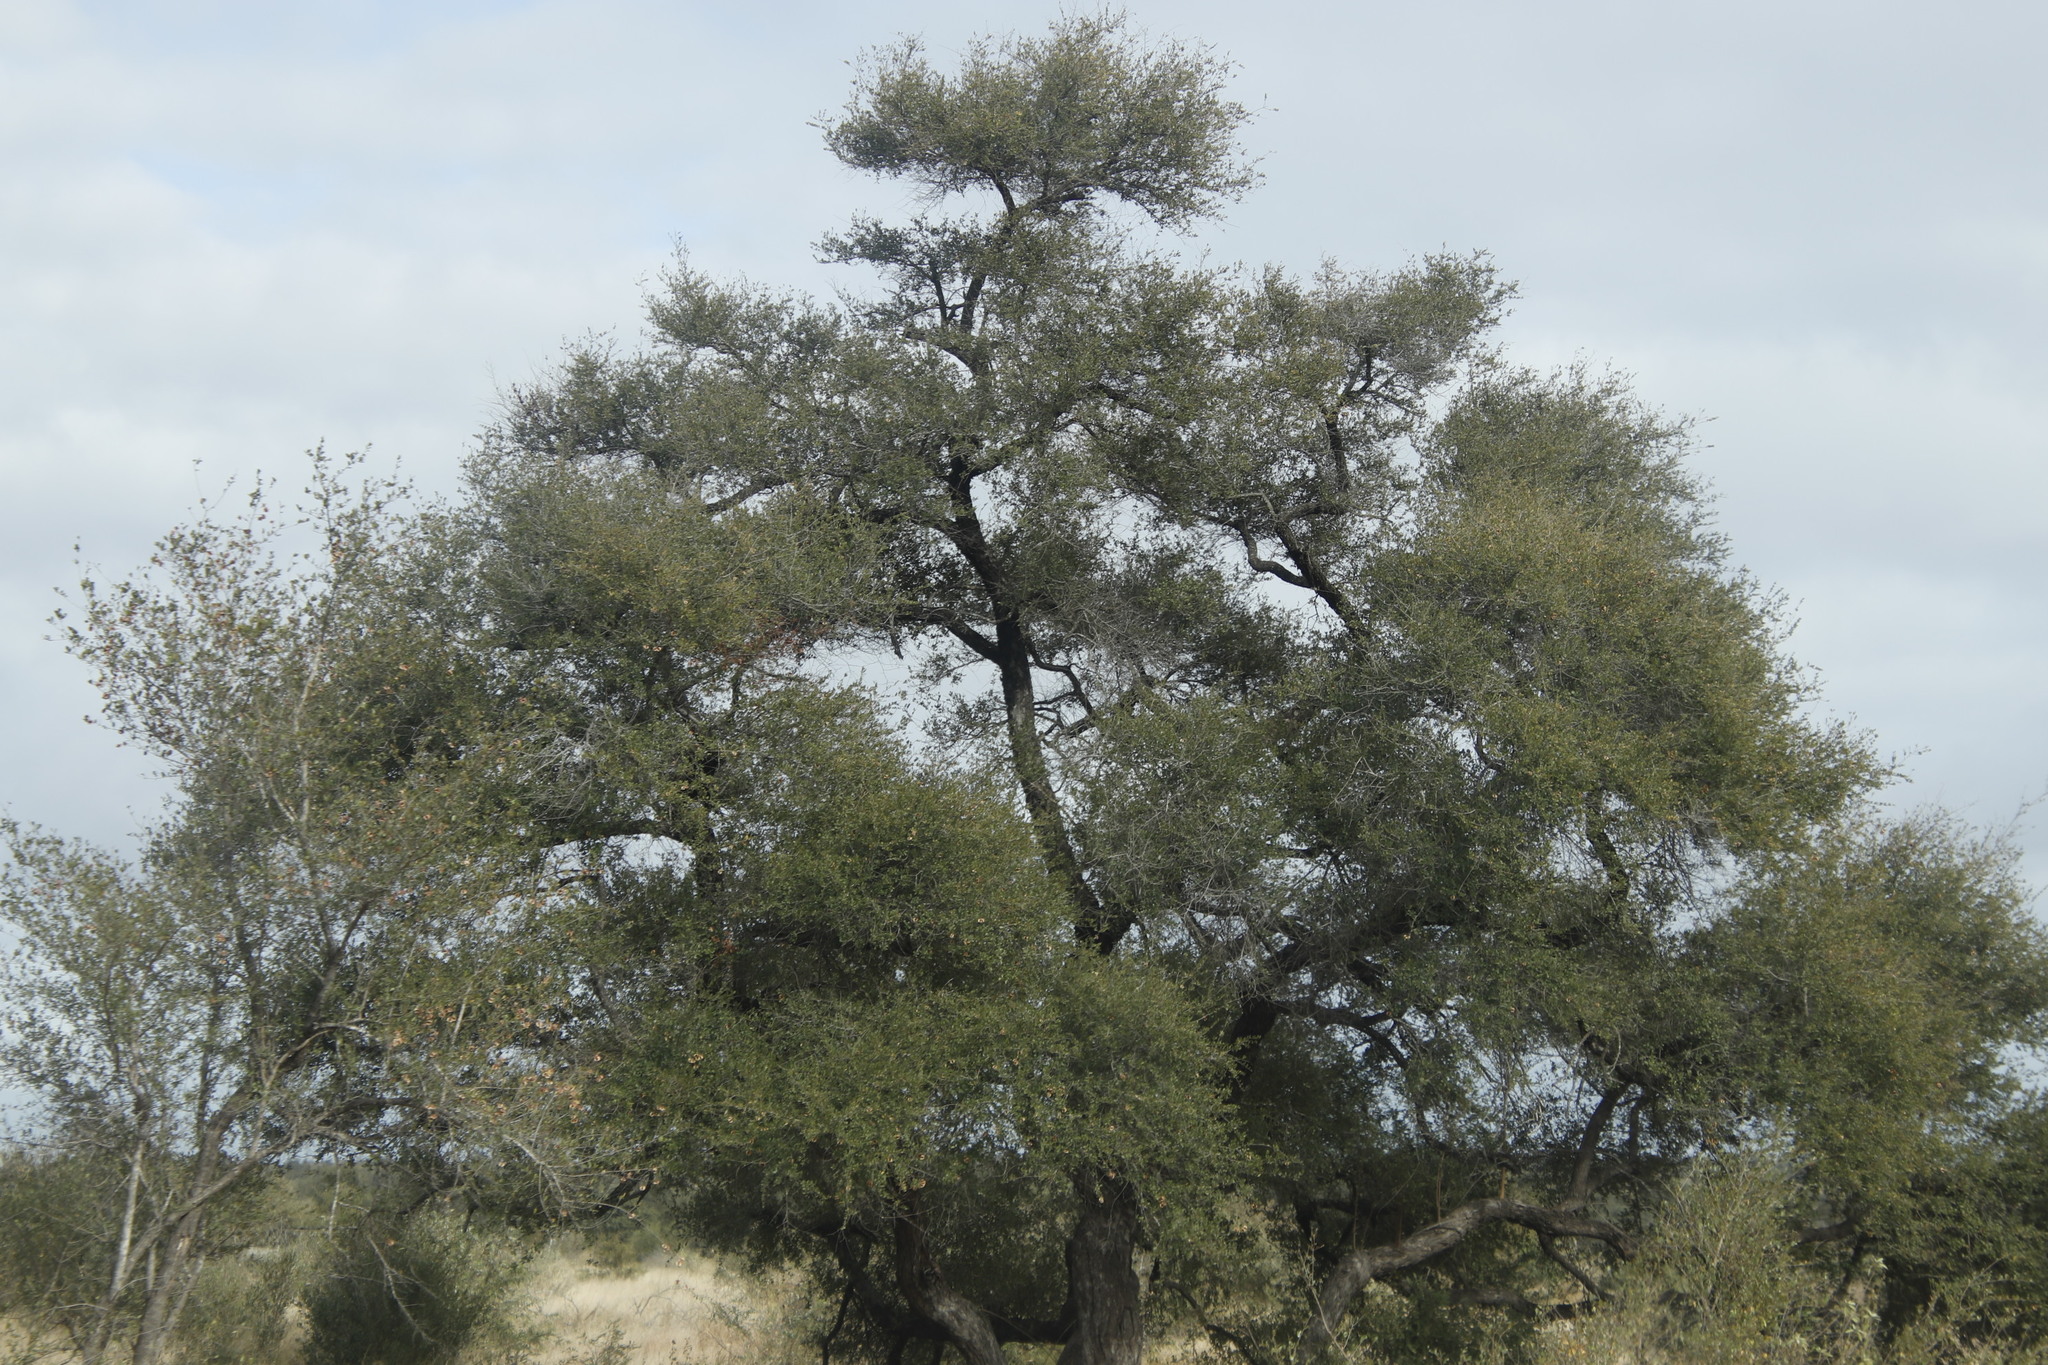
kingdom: Plantae
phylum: Tracheophyta
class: Magnoliopsida
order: Fabales
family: Fabaceae
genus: Senegalia
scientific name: Senegalia welwitschii
